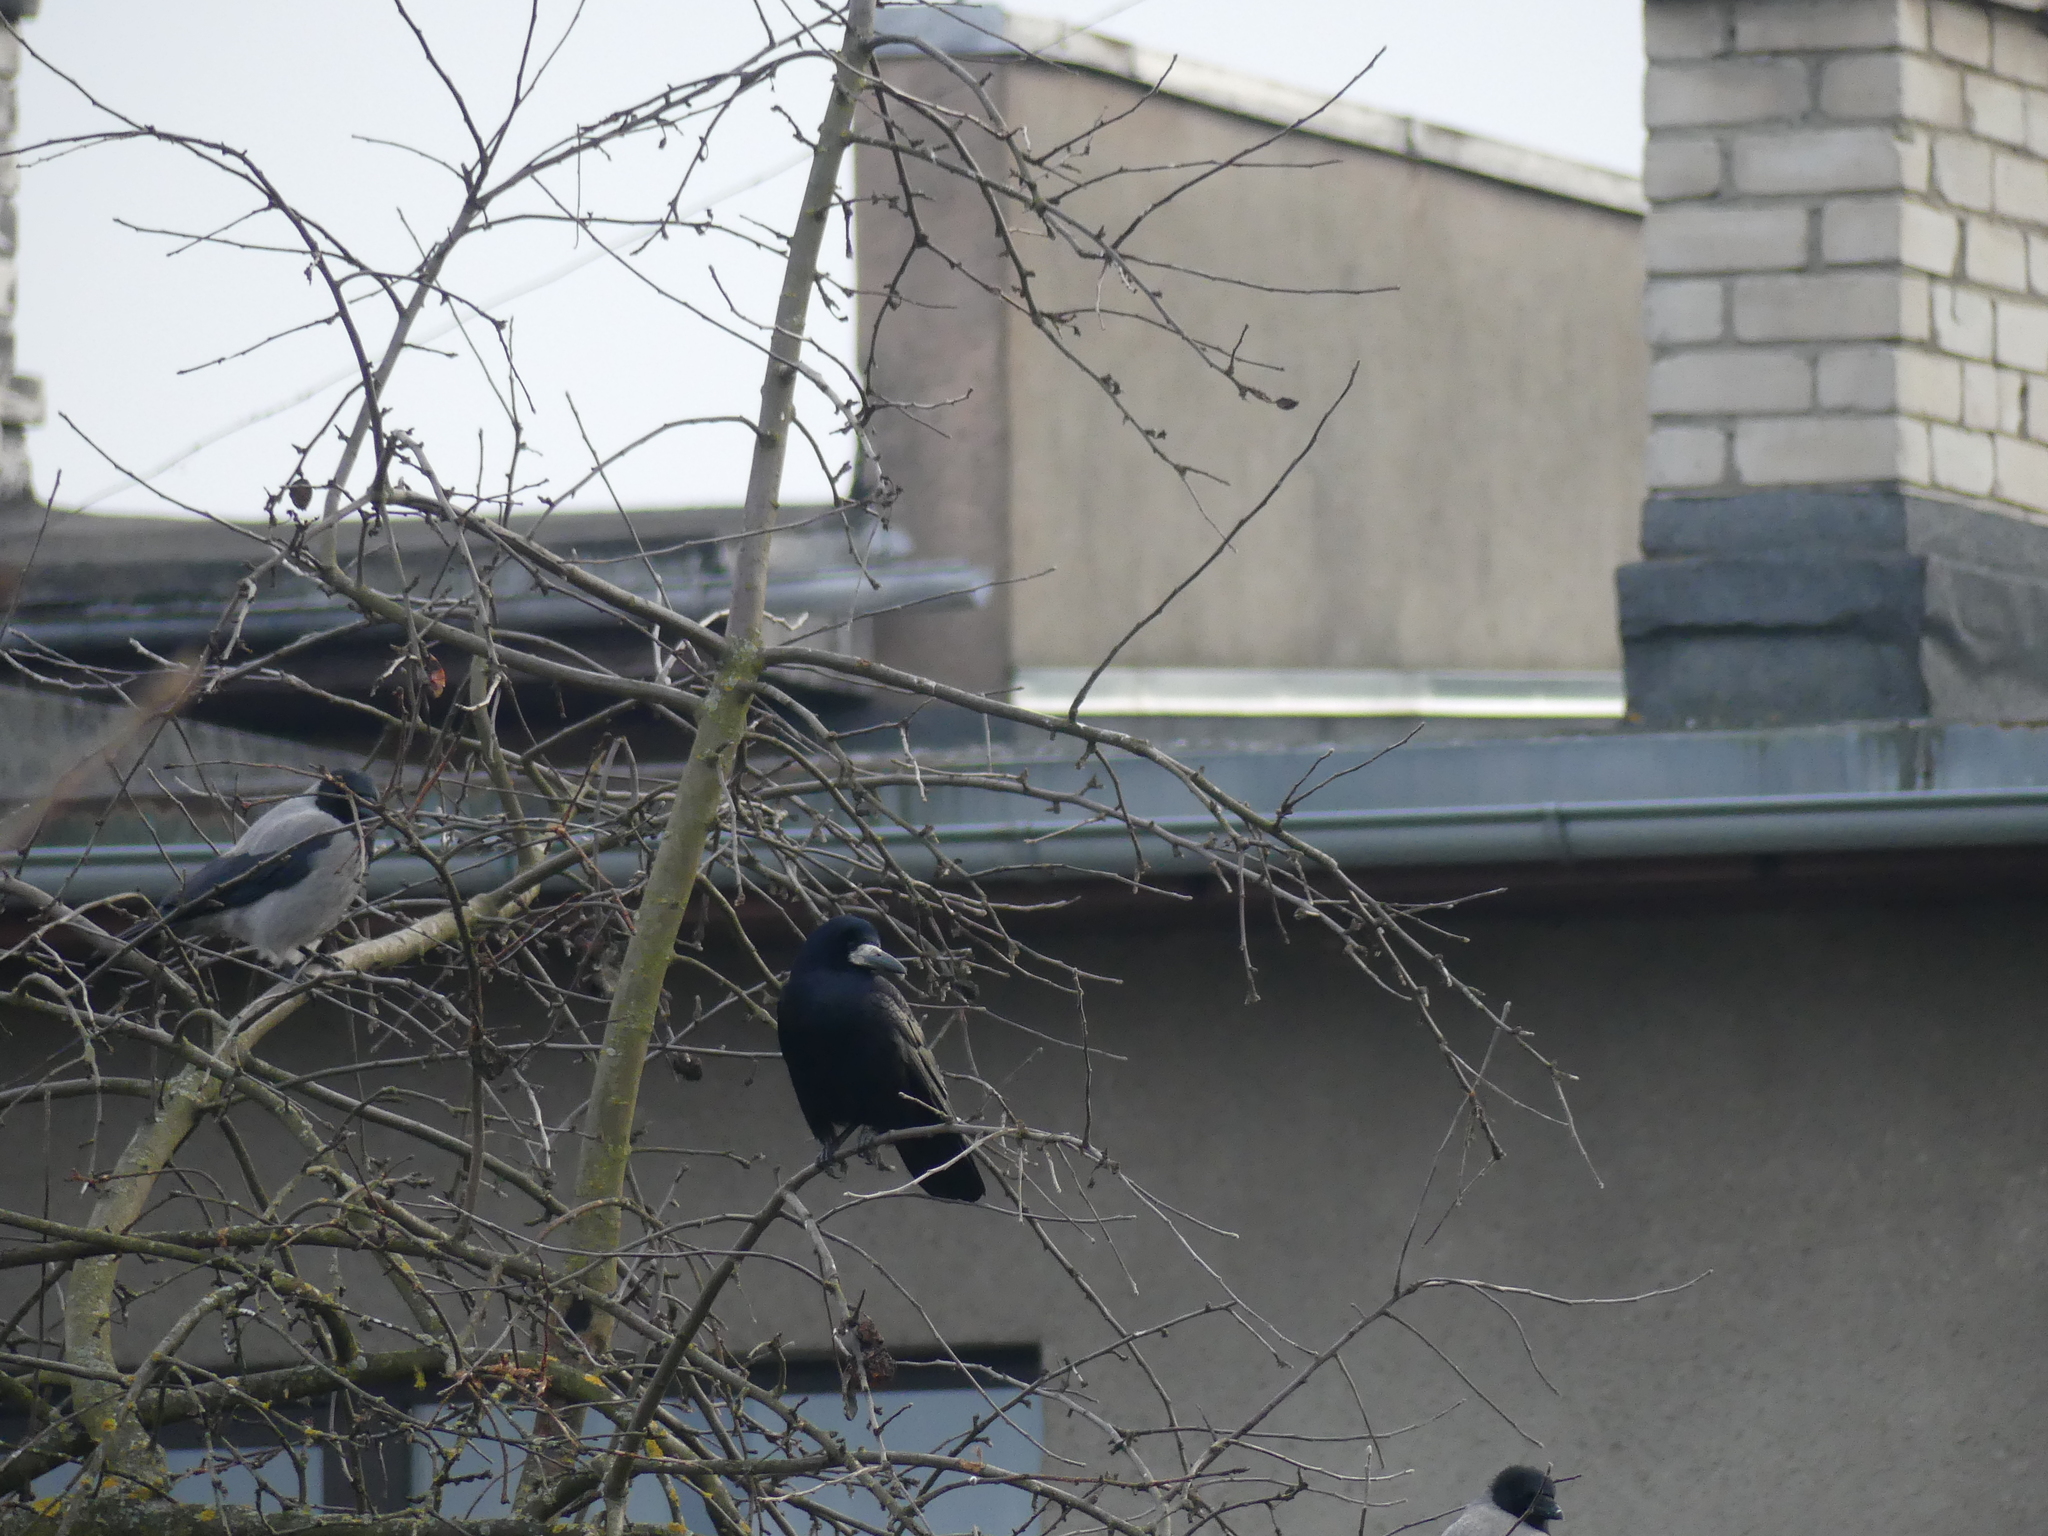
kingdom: Animalia
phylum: Chordata
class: Aves
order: Passeriformes
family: Corvidae
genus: Corvus
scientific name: Corvus cornix
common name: Hooded crow
